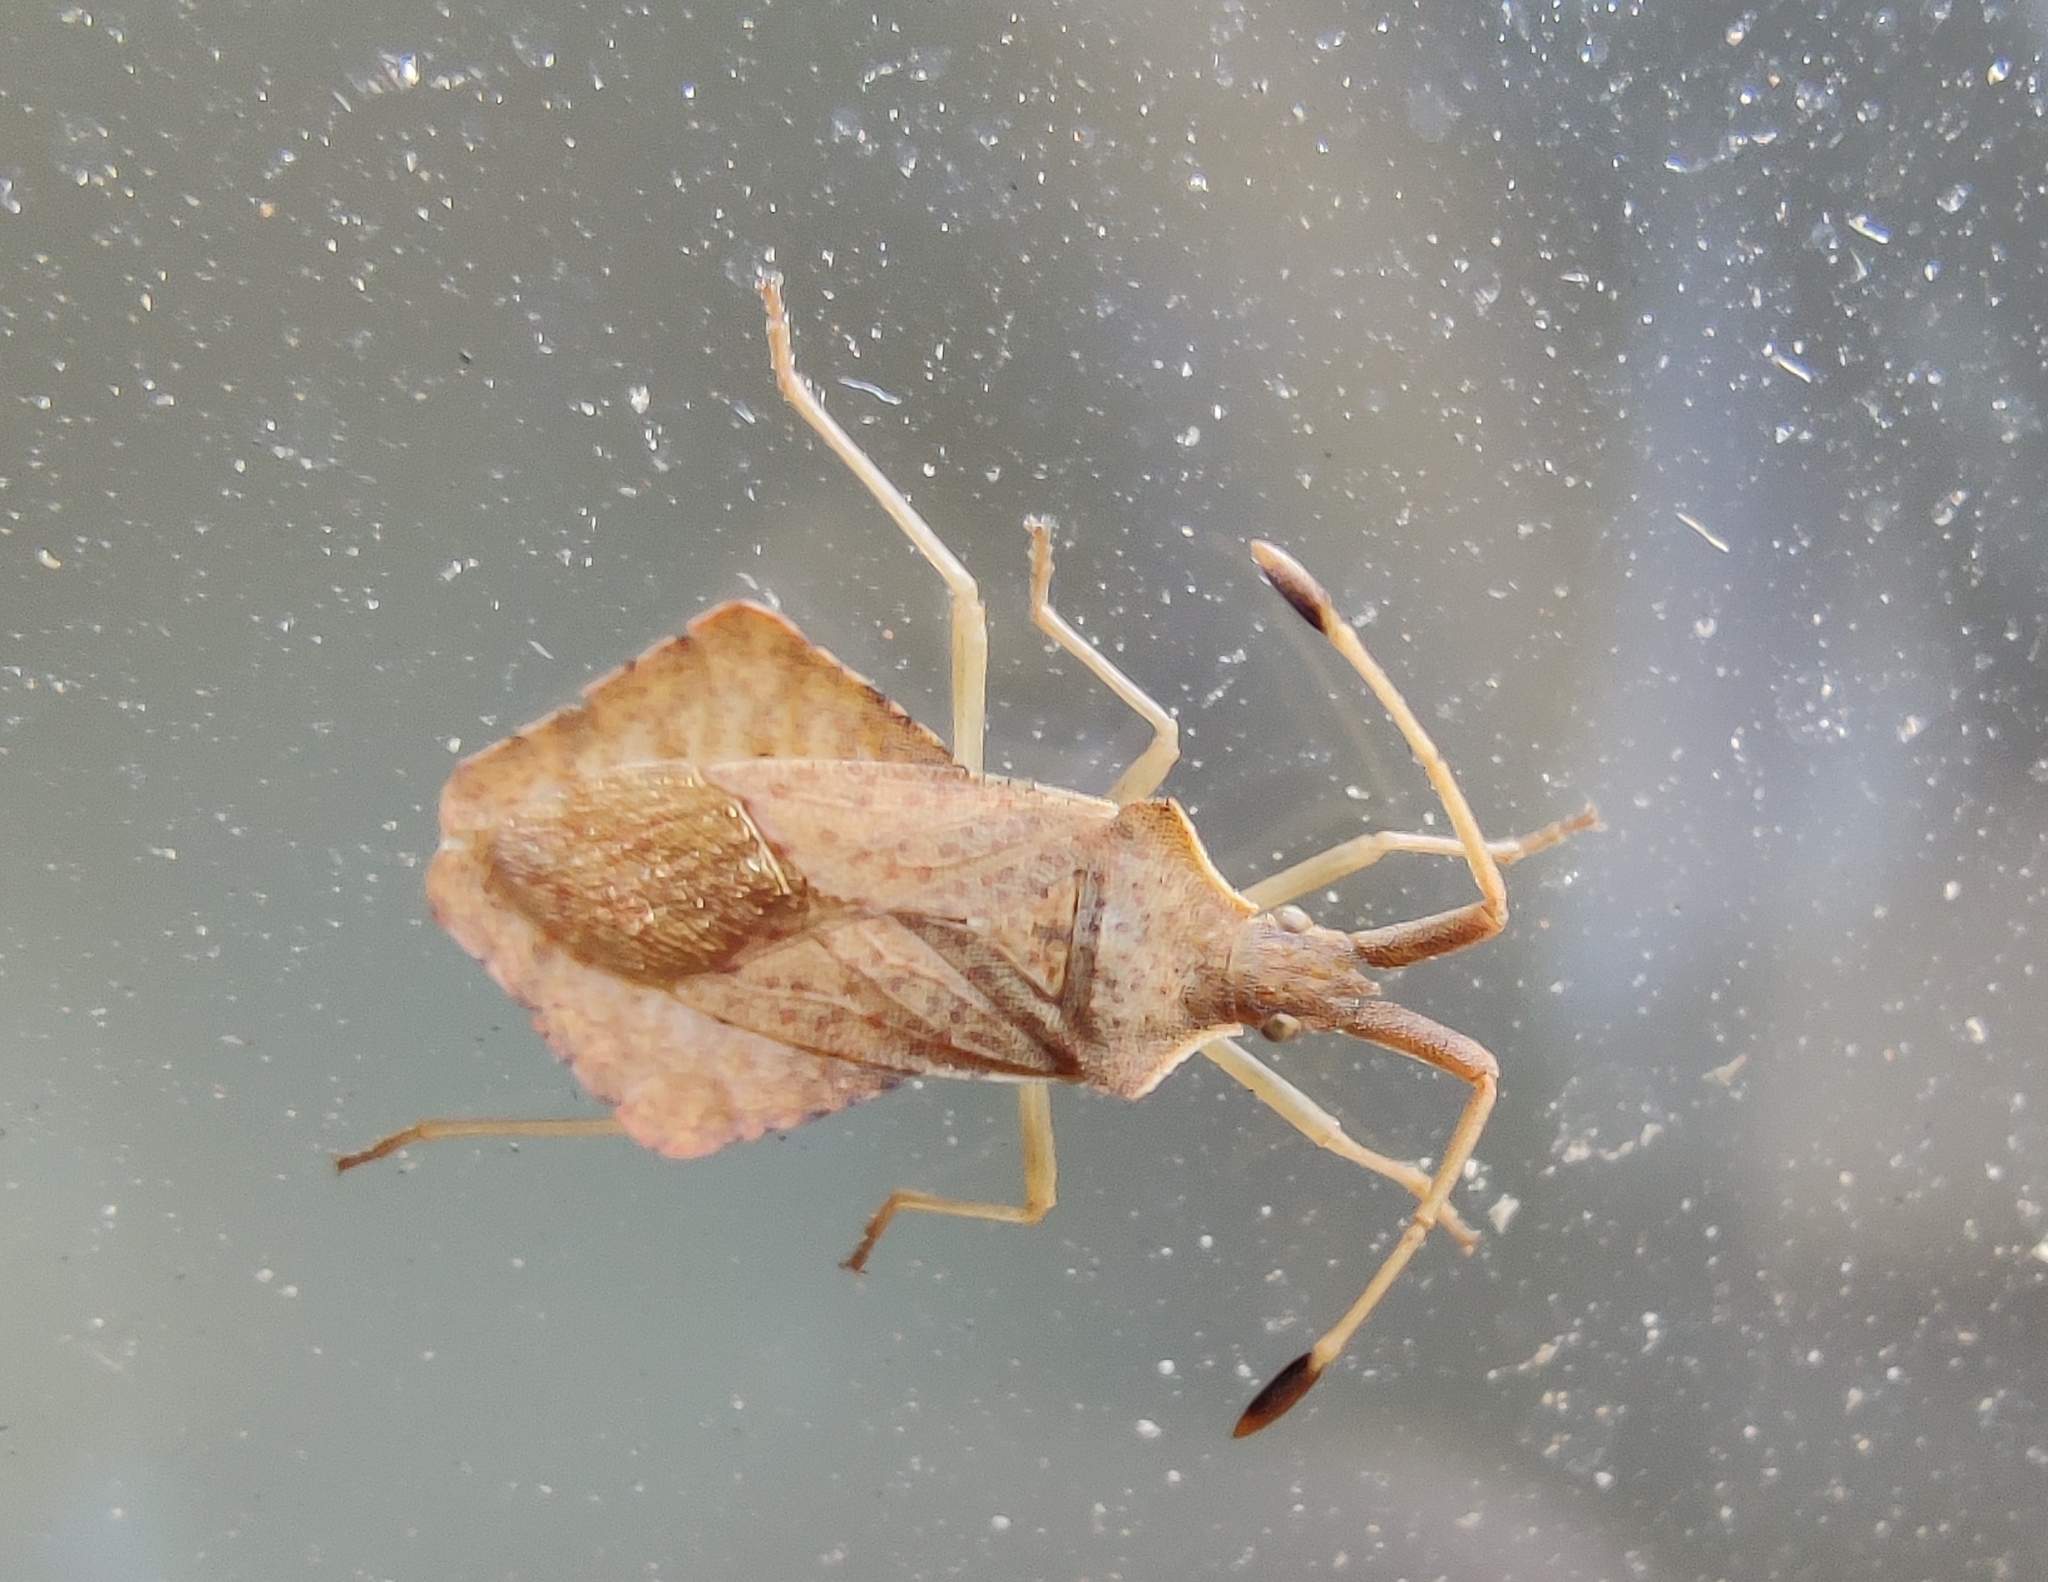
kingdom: Animalia
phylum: Arthropoda
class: Insecta
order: Hemiptera
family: Coreidae
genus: Syromastus
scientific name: Syromastus rhombeus
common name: Rhombic leatherbug
